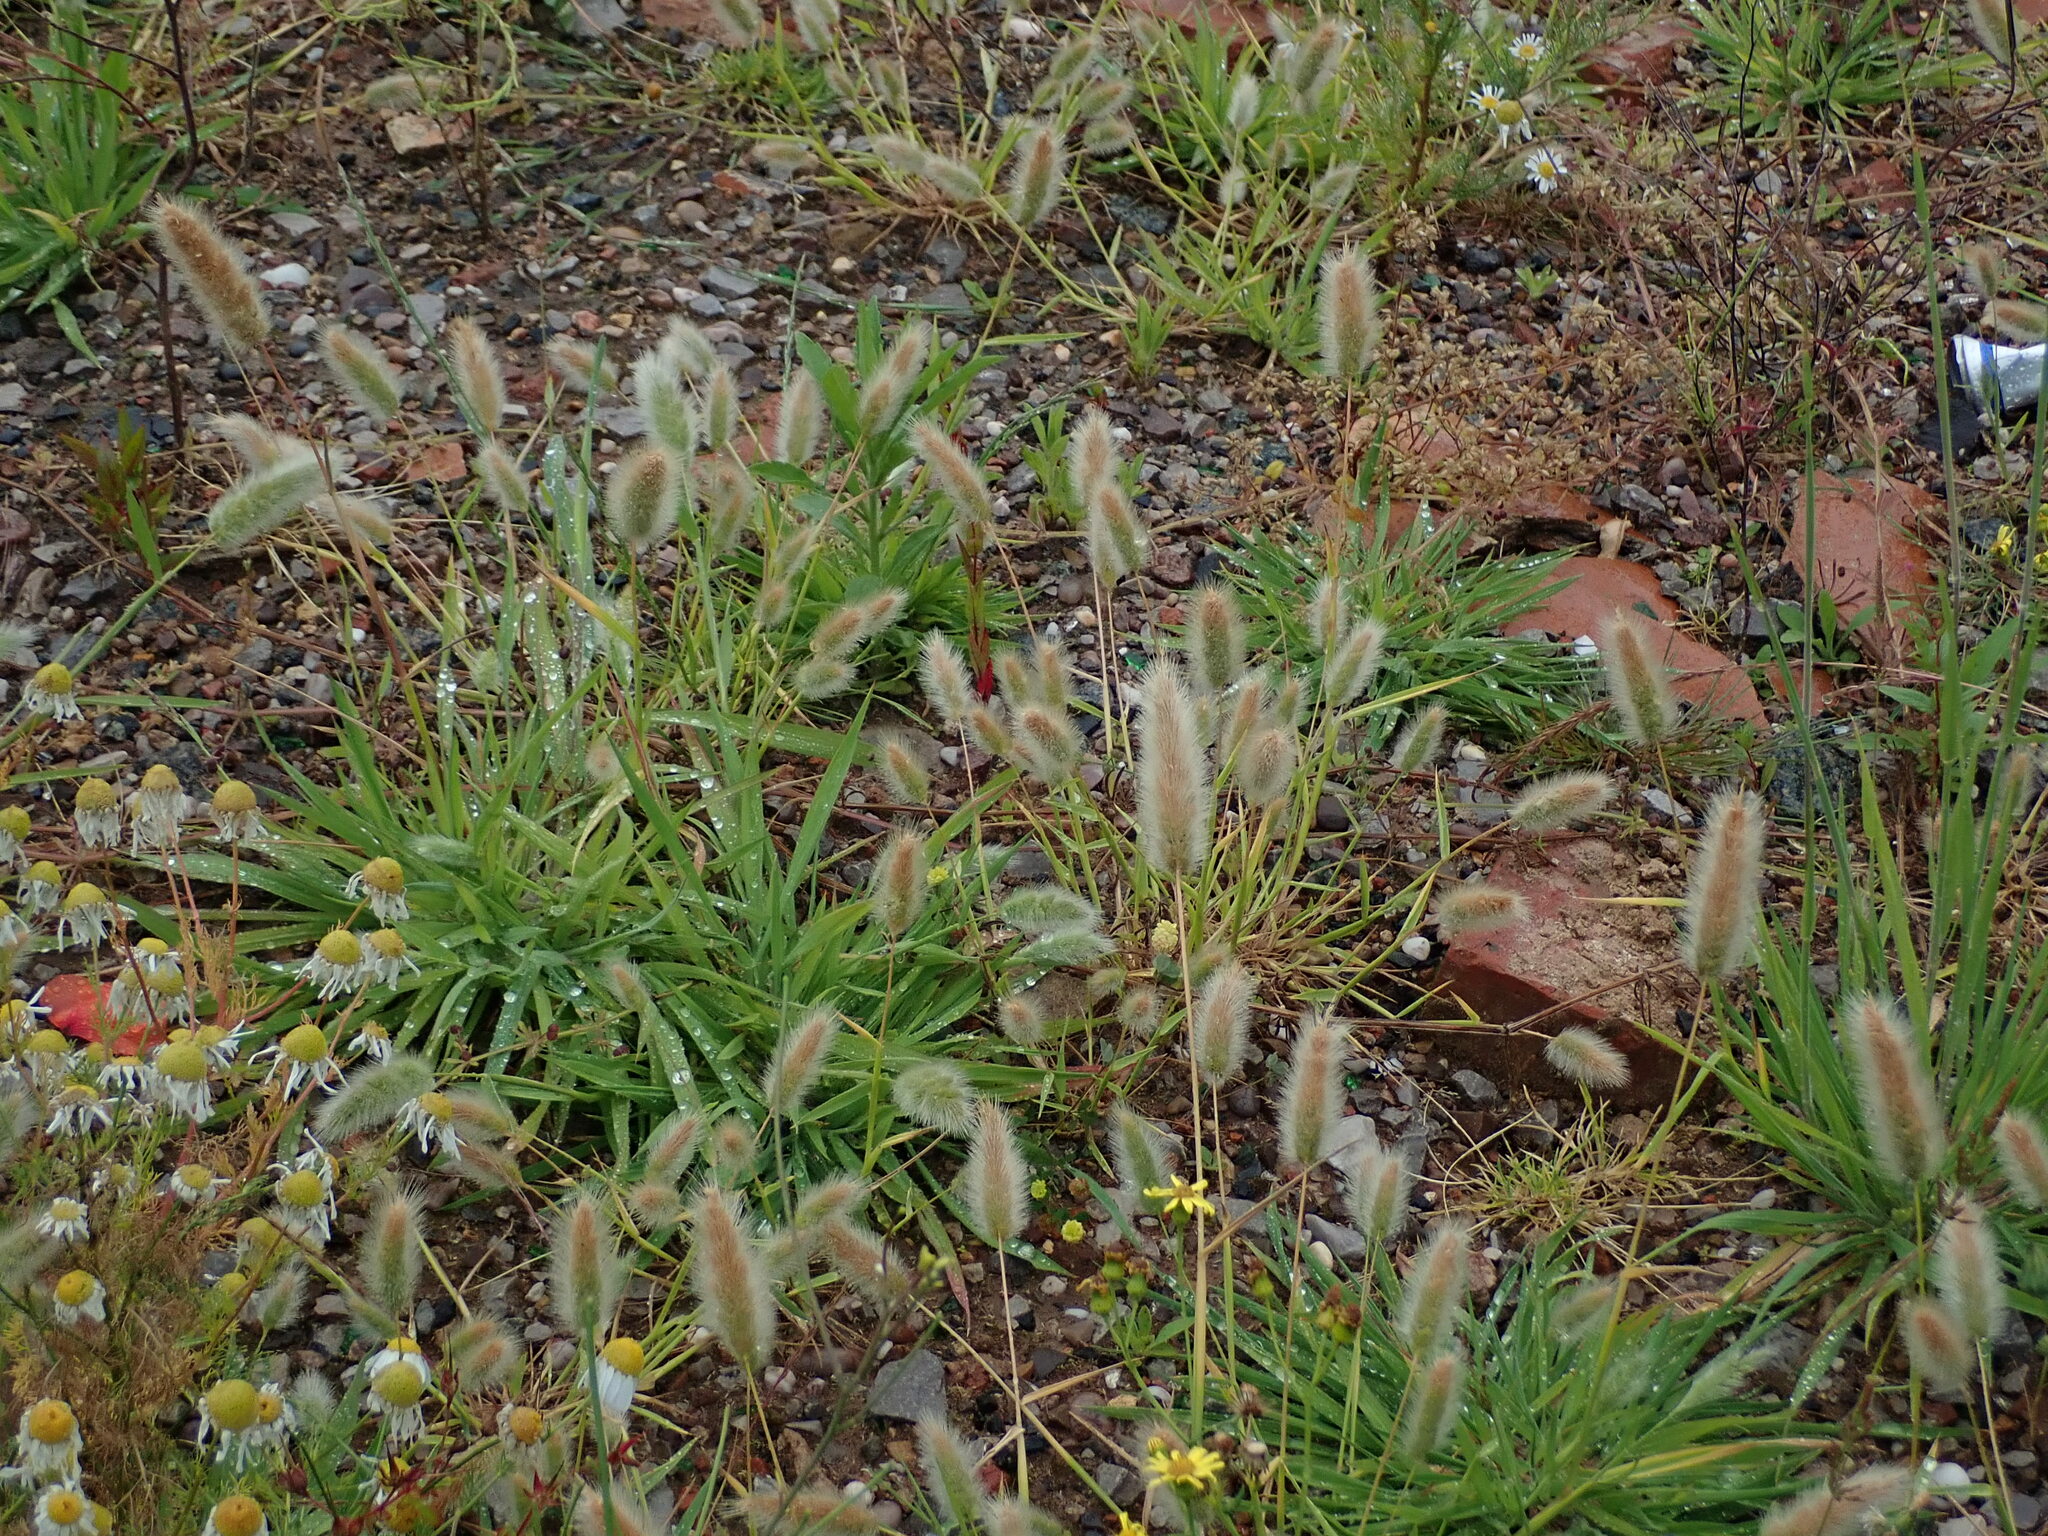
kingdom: Plantae
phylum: Tracheophyta
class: Liliopsida
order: Poales
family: Poaceae
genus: Polypogon
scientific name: Polypogon monspeliensis
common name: Annual rabbitsfoot grass
